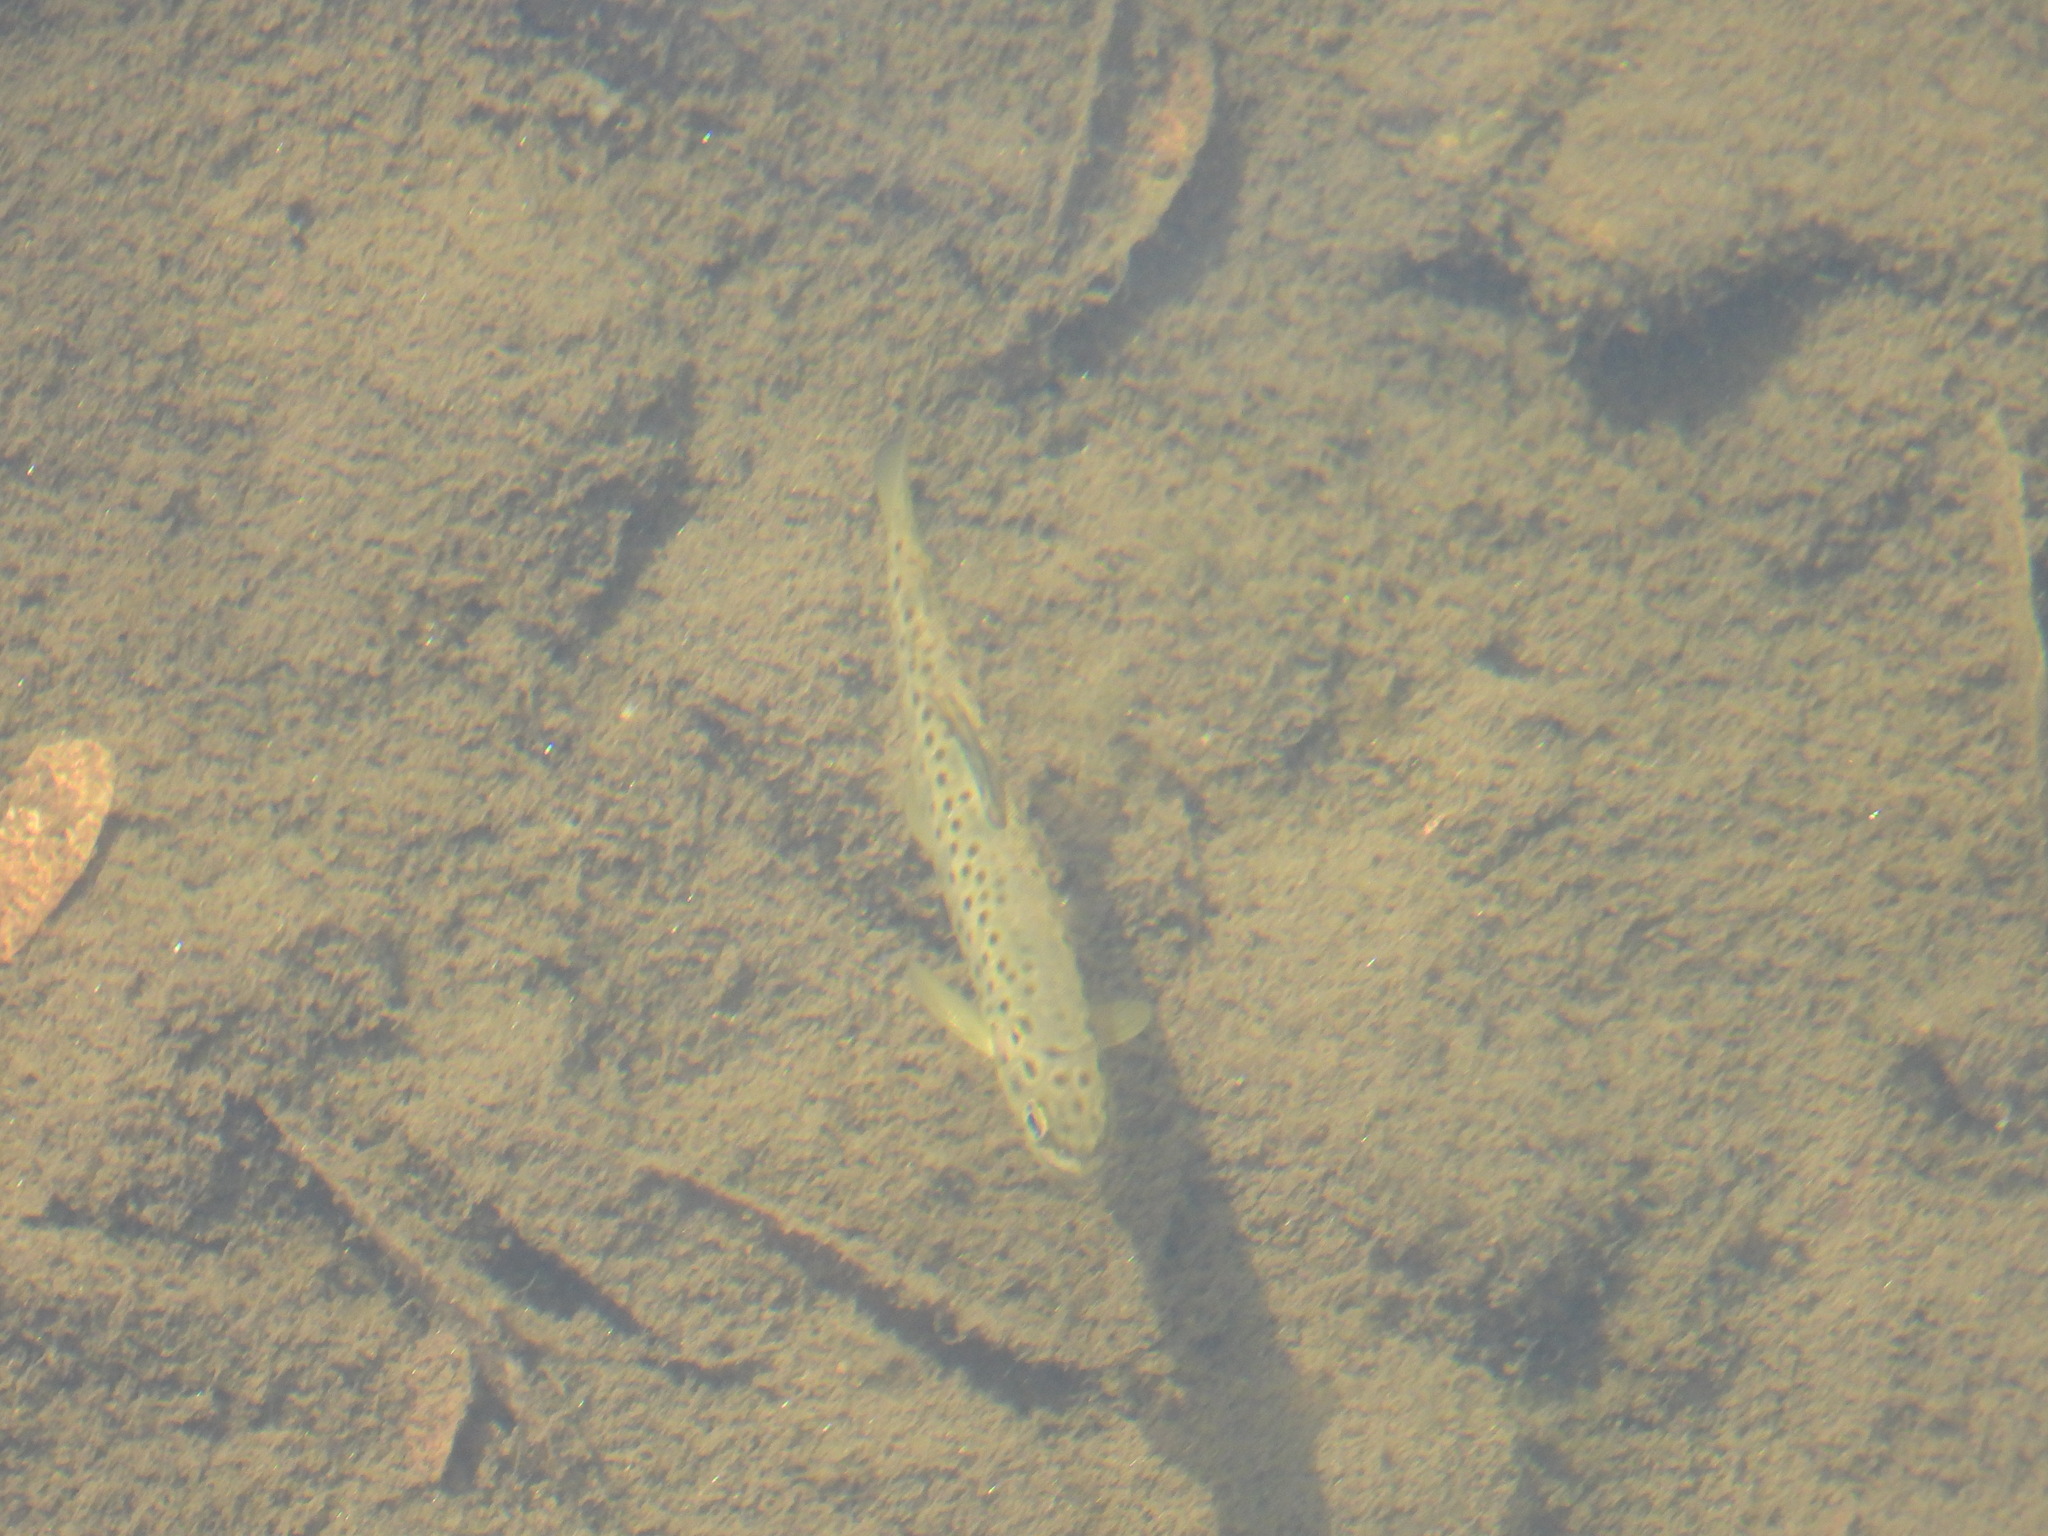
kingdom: Animalia
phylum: Chordata
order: Salmoniformes
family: Salmonidae
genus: Salmo
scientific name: Salmo trutta
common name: Brown trout
